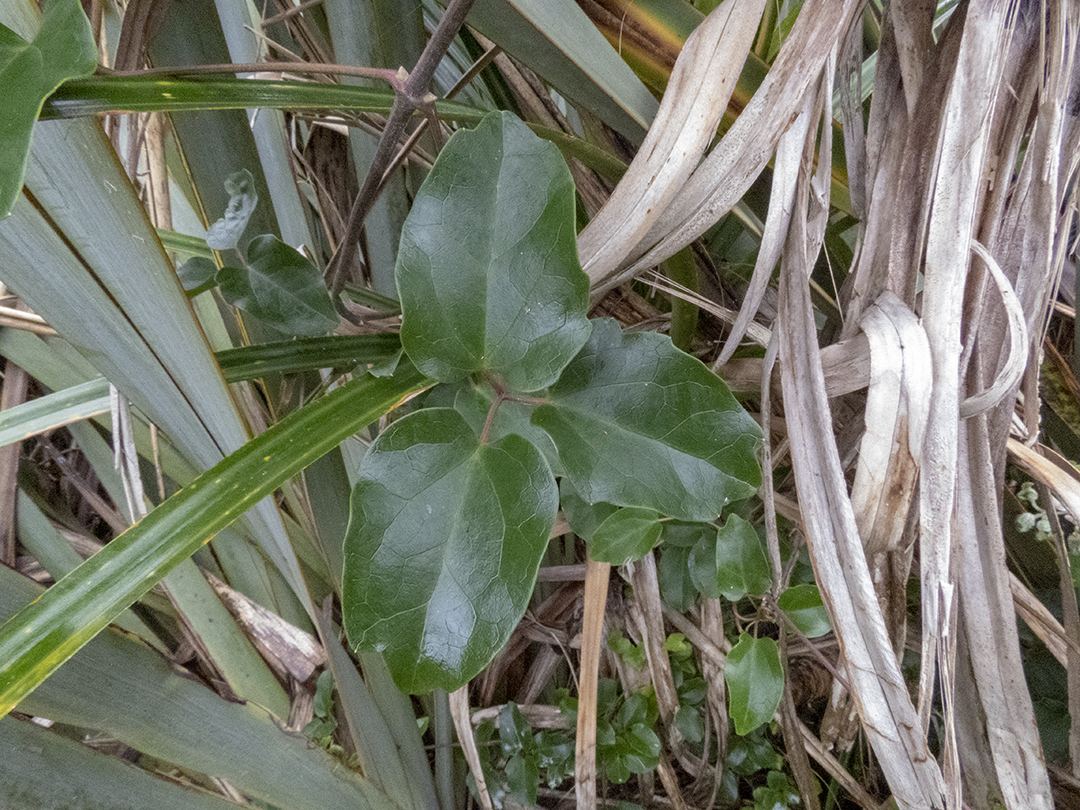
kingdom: Plantae
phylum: Tracheophyta
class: Magnoliopsida
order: Ranunculales
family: Ranunculaceae
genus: Clematis
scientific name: Clematis paniculata
